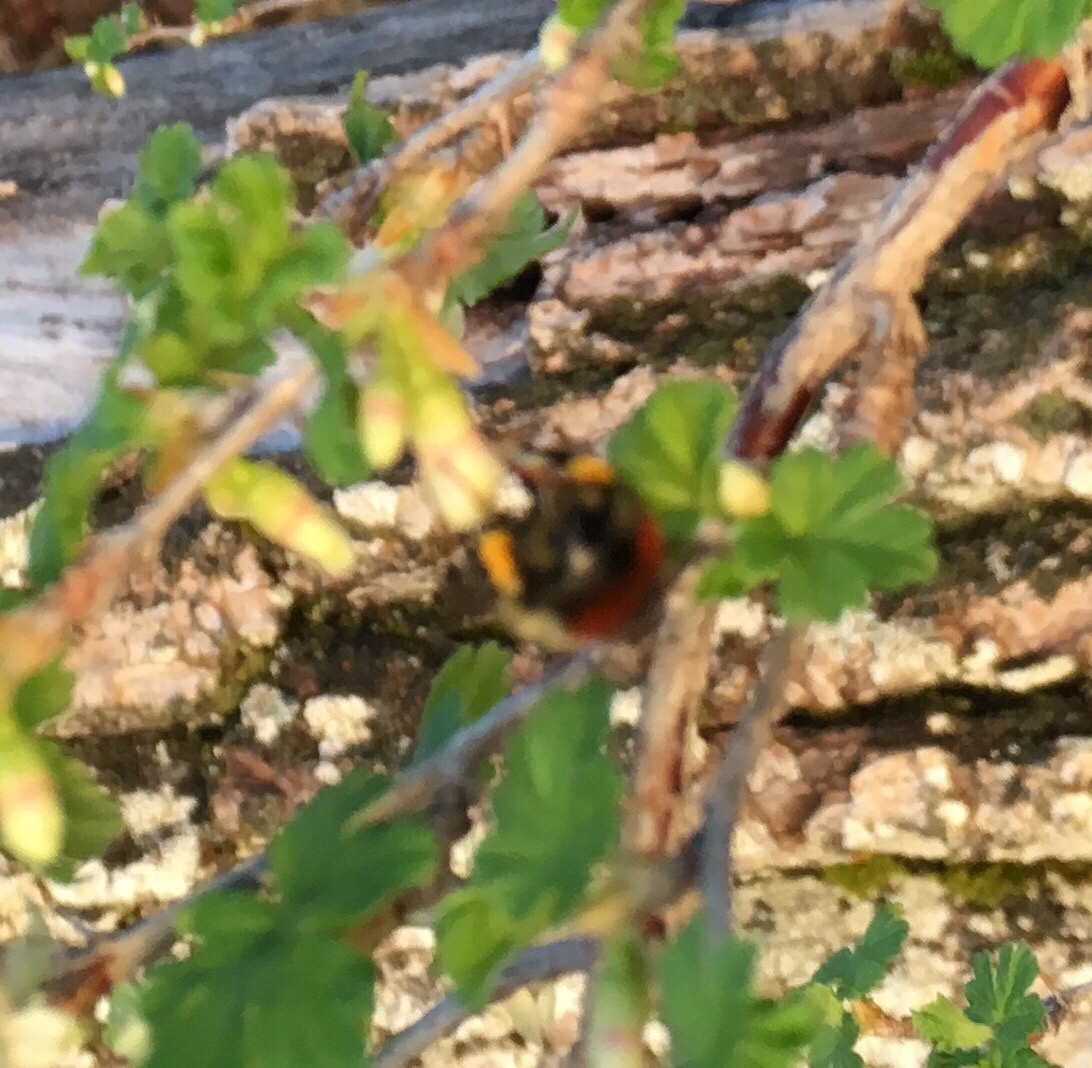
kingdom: Animalia
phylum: Arthropoda
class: Insecta
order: Hymenoptera
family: Apidae
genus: Bombus
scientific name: Bombus melanopygus
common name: Black tail bumble bee
